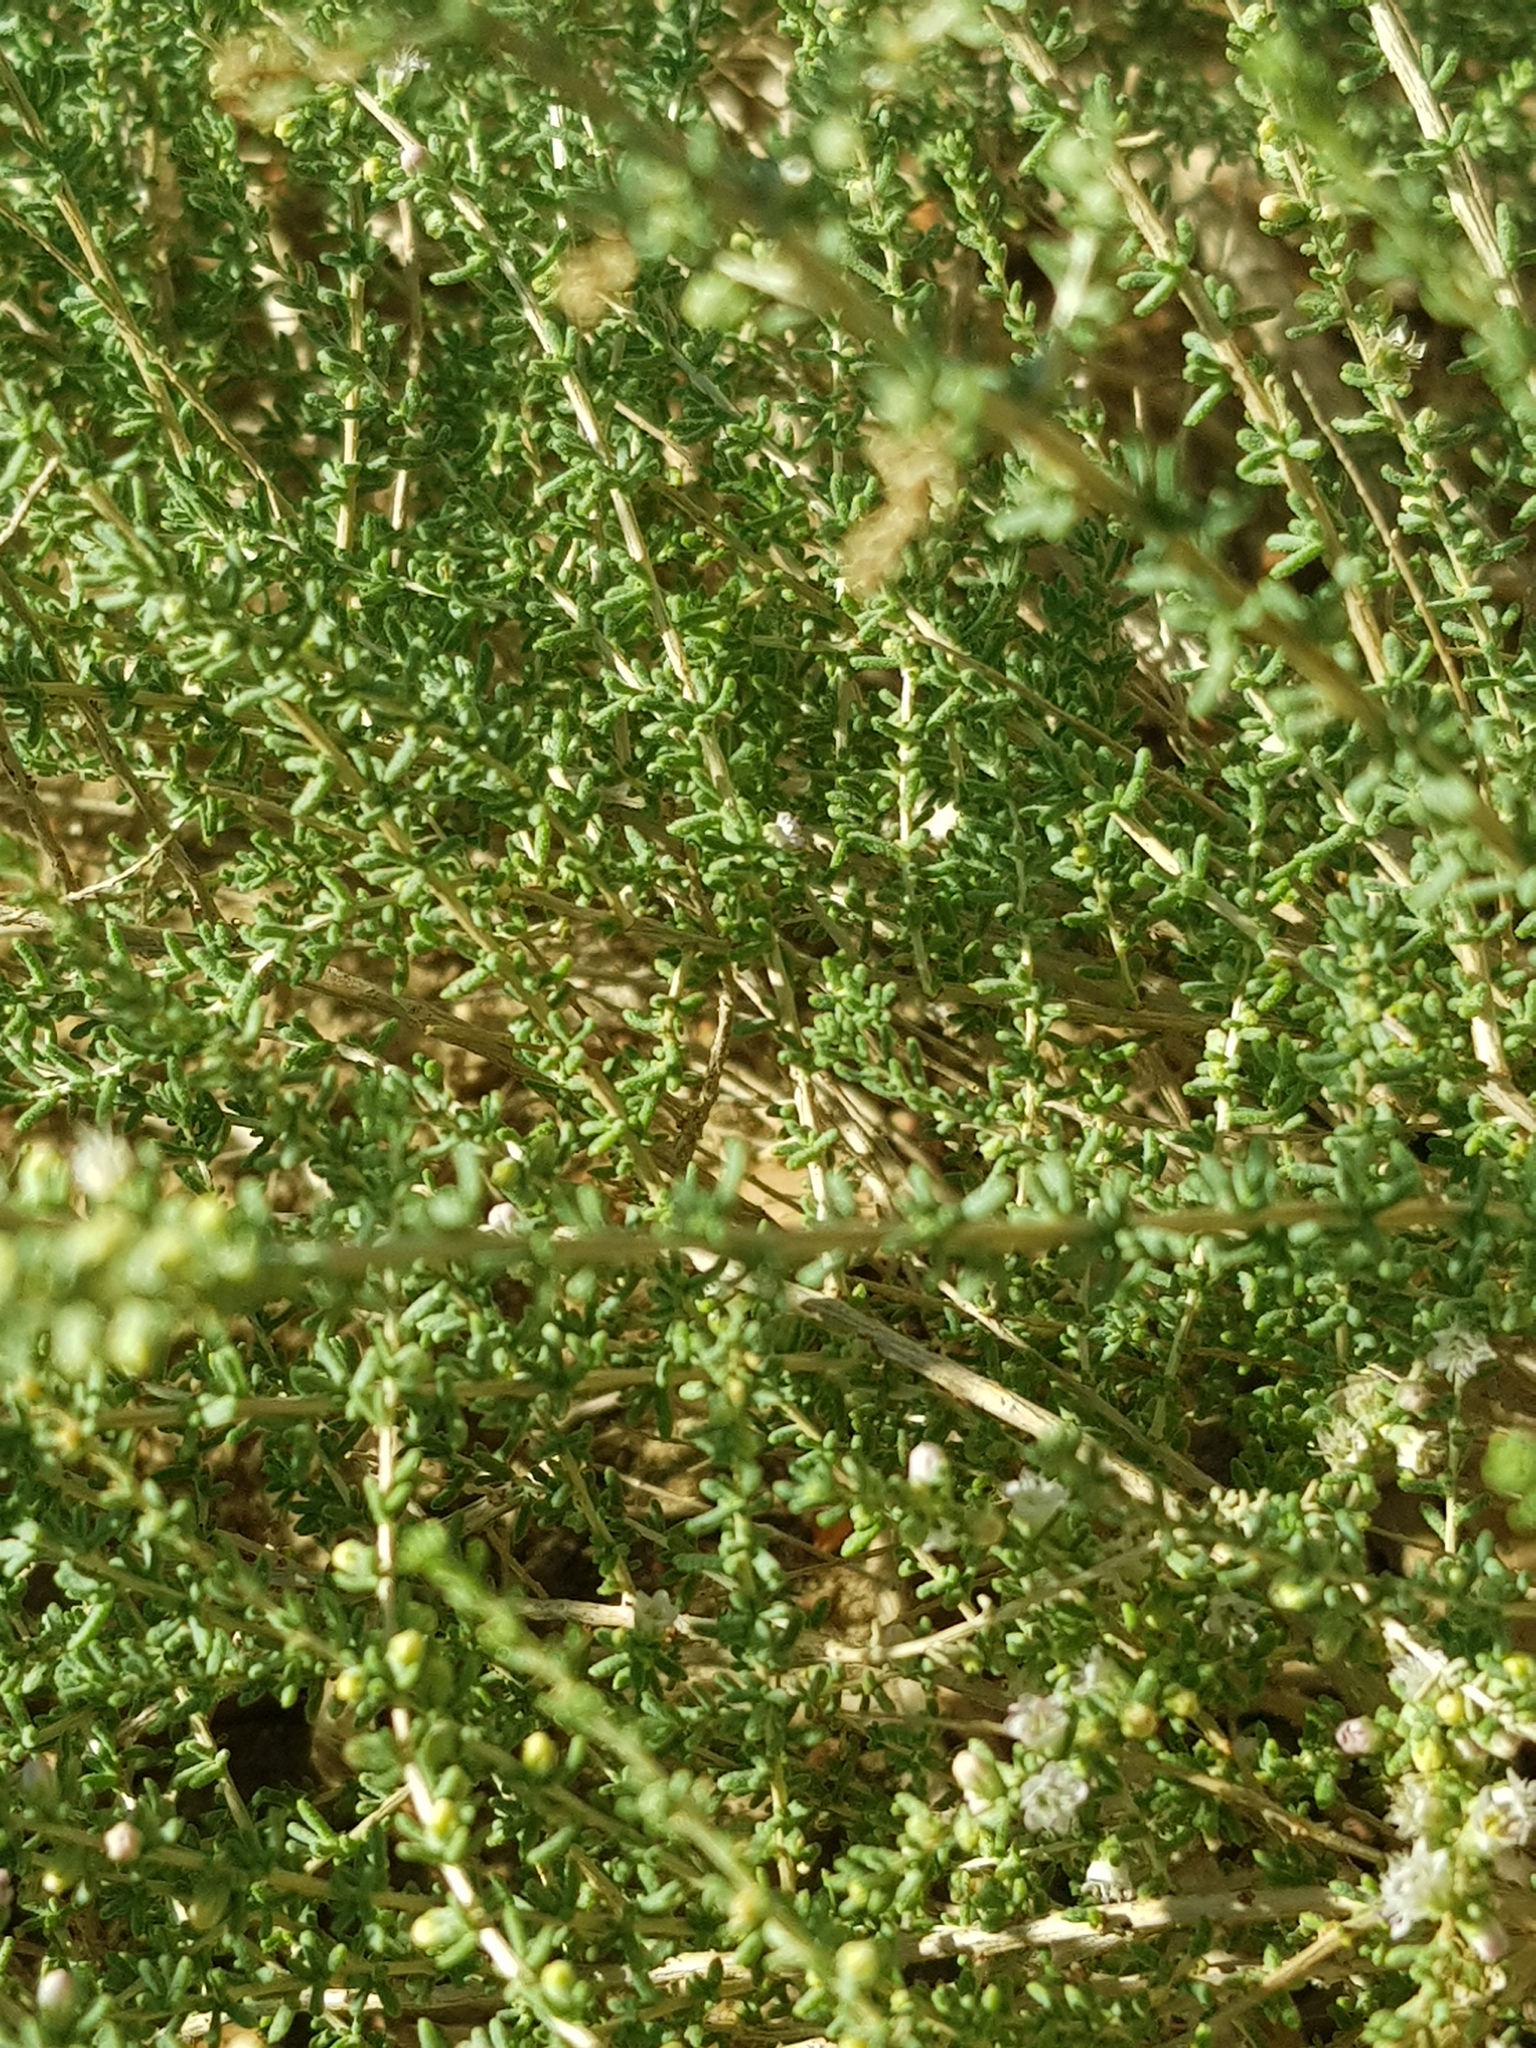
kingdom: Plantae
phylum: Tracheophyta
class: Magnoliopsida
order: Caryophyllales
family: Tamaricaceae
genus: Reaumuria
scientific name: Reaumuria songarica
